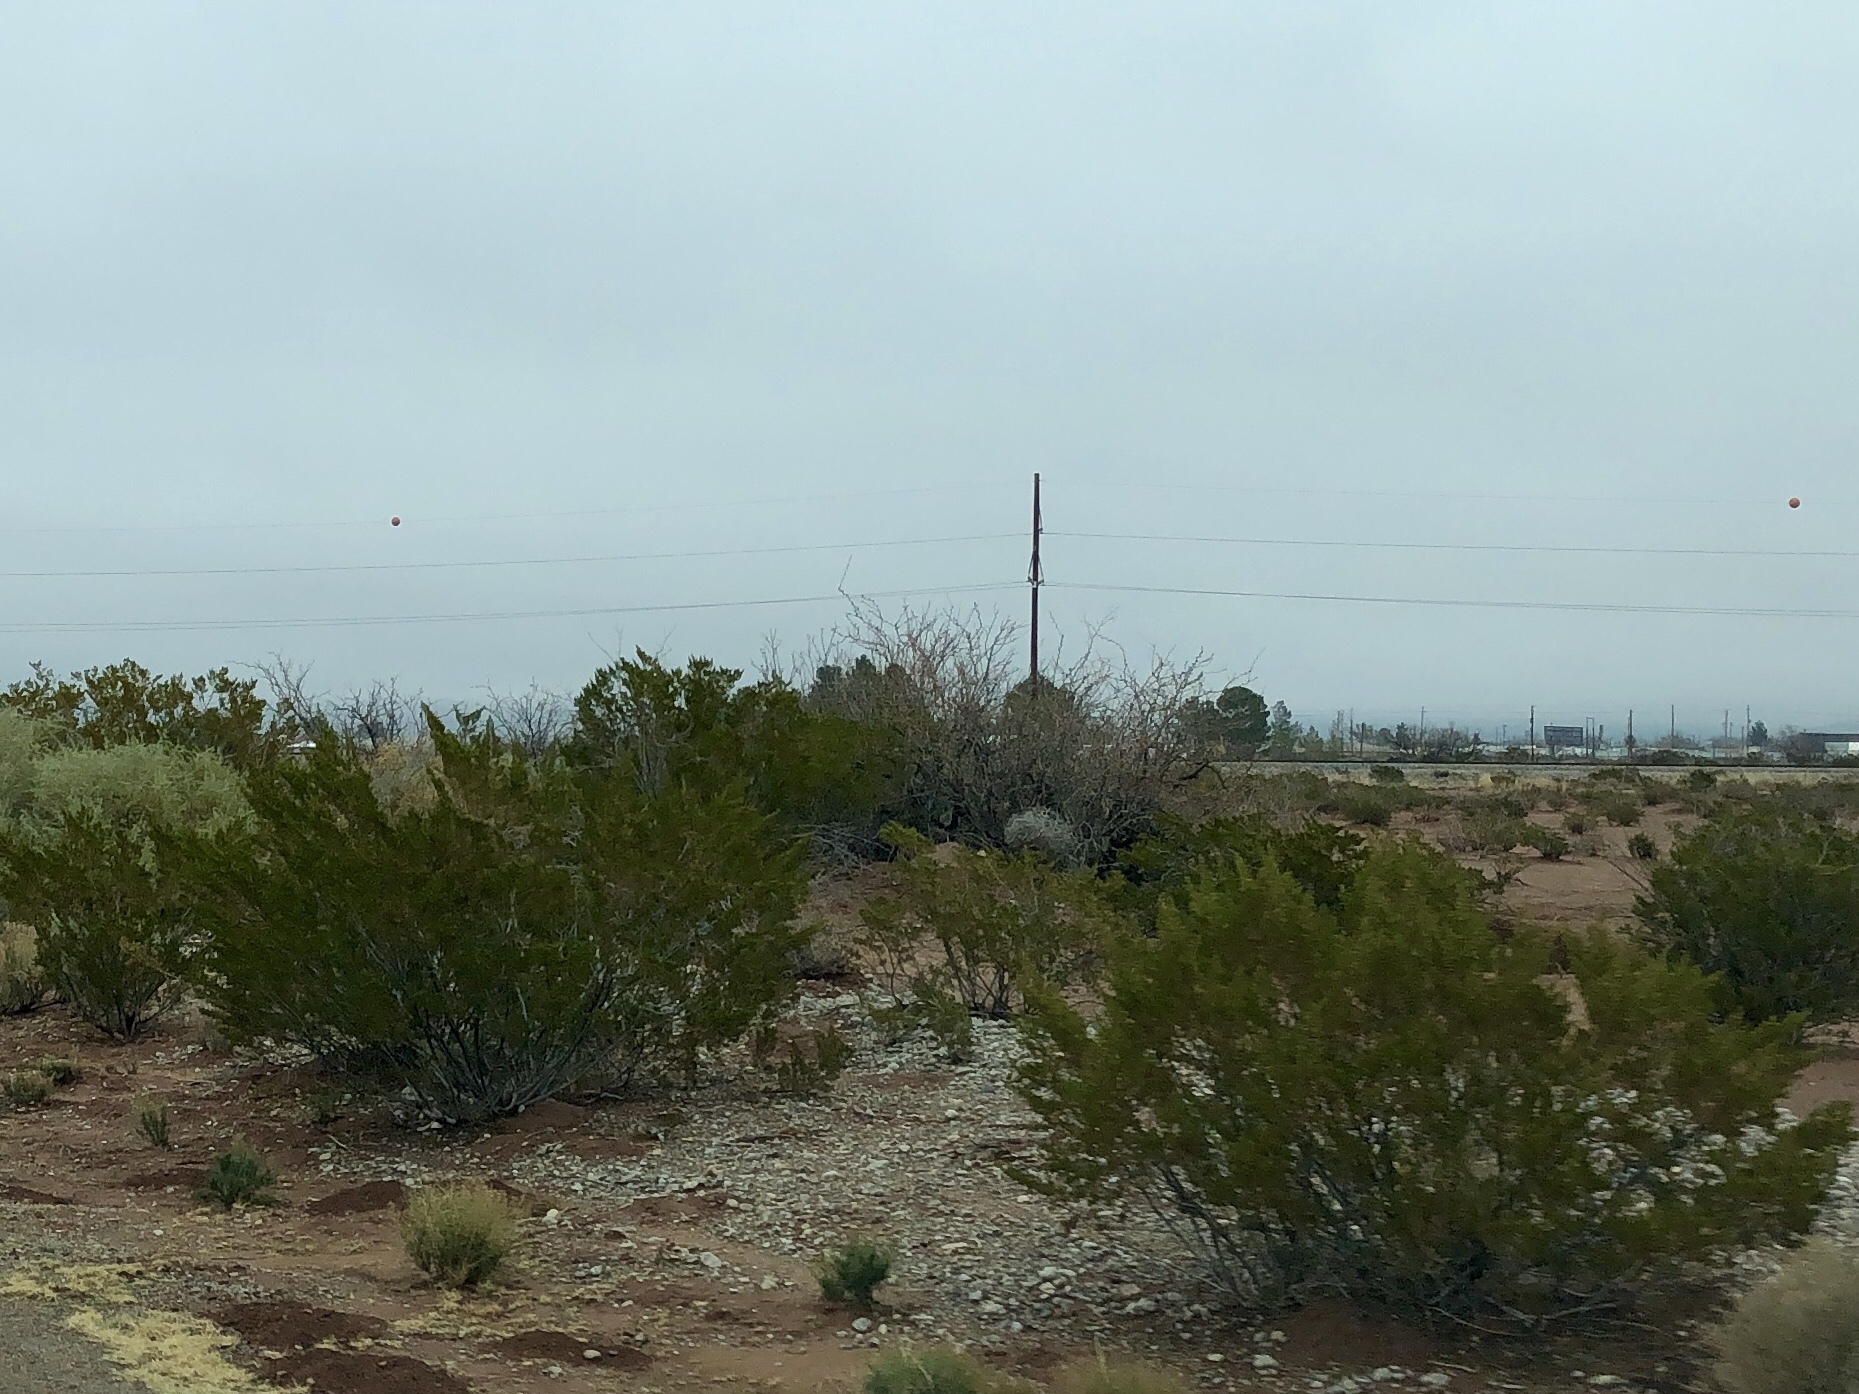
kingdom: Plantae
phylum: Tracheophyta
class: Magnoliopsida
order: Zygophyllales
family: Zygophyllaceae
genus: Larrea
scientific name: Larrea tridentata
